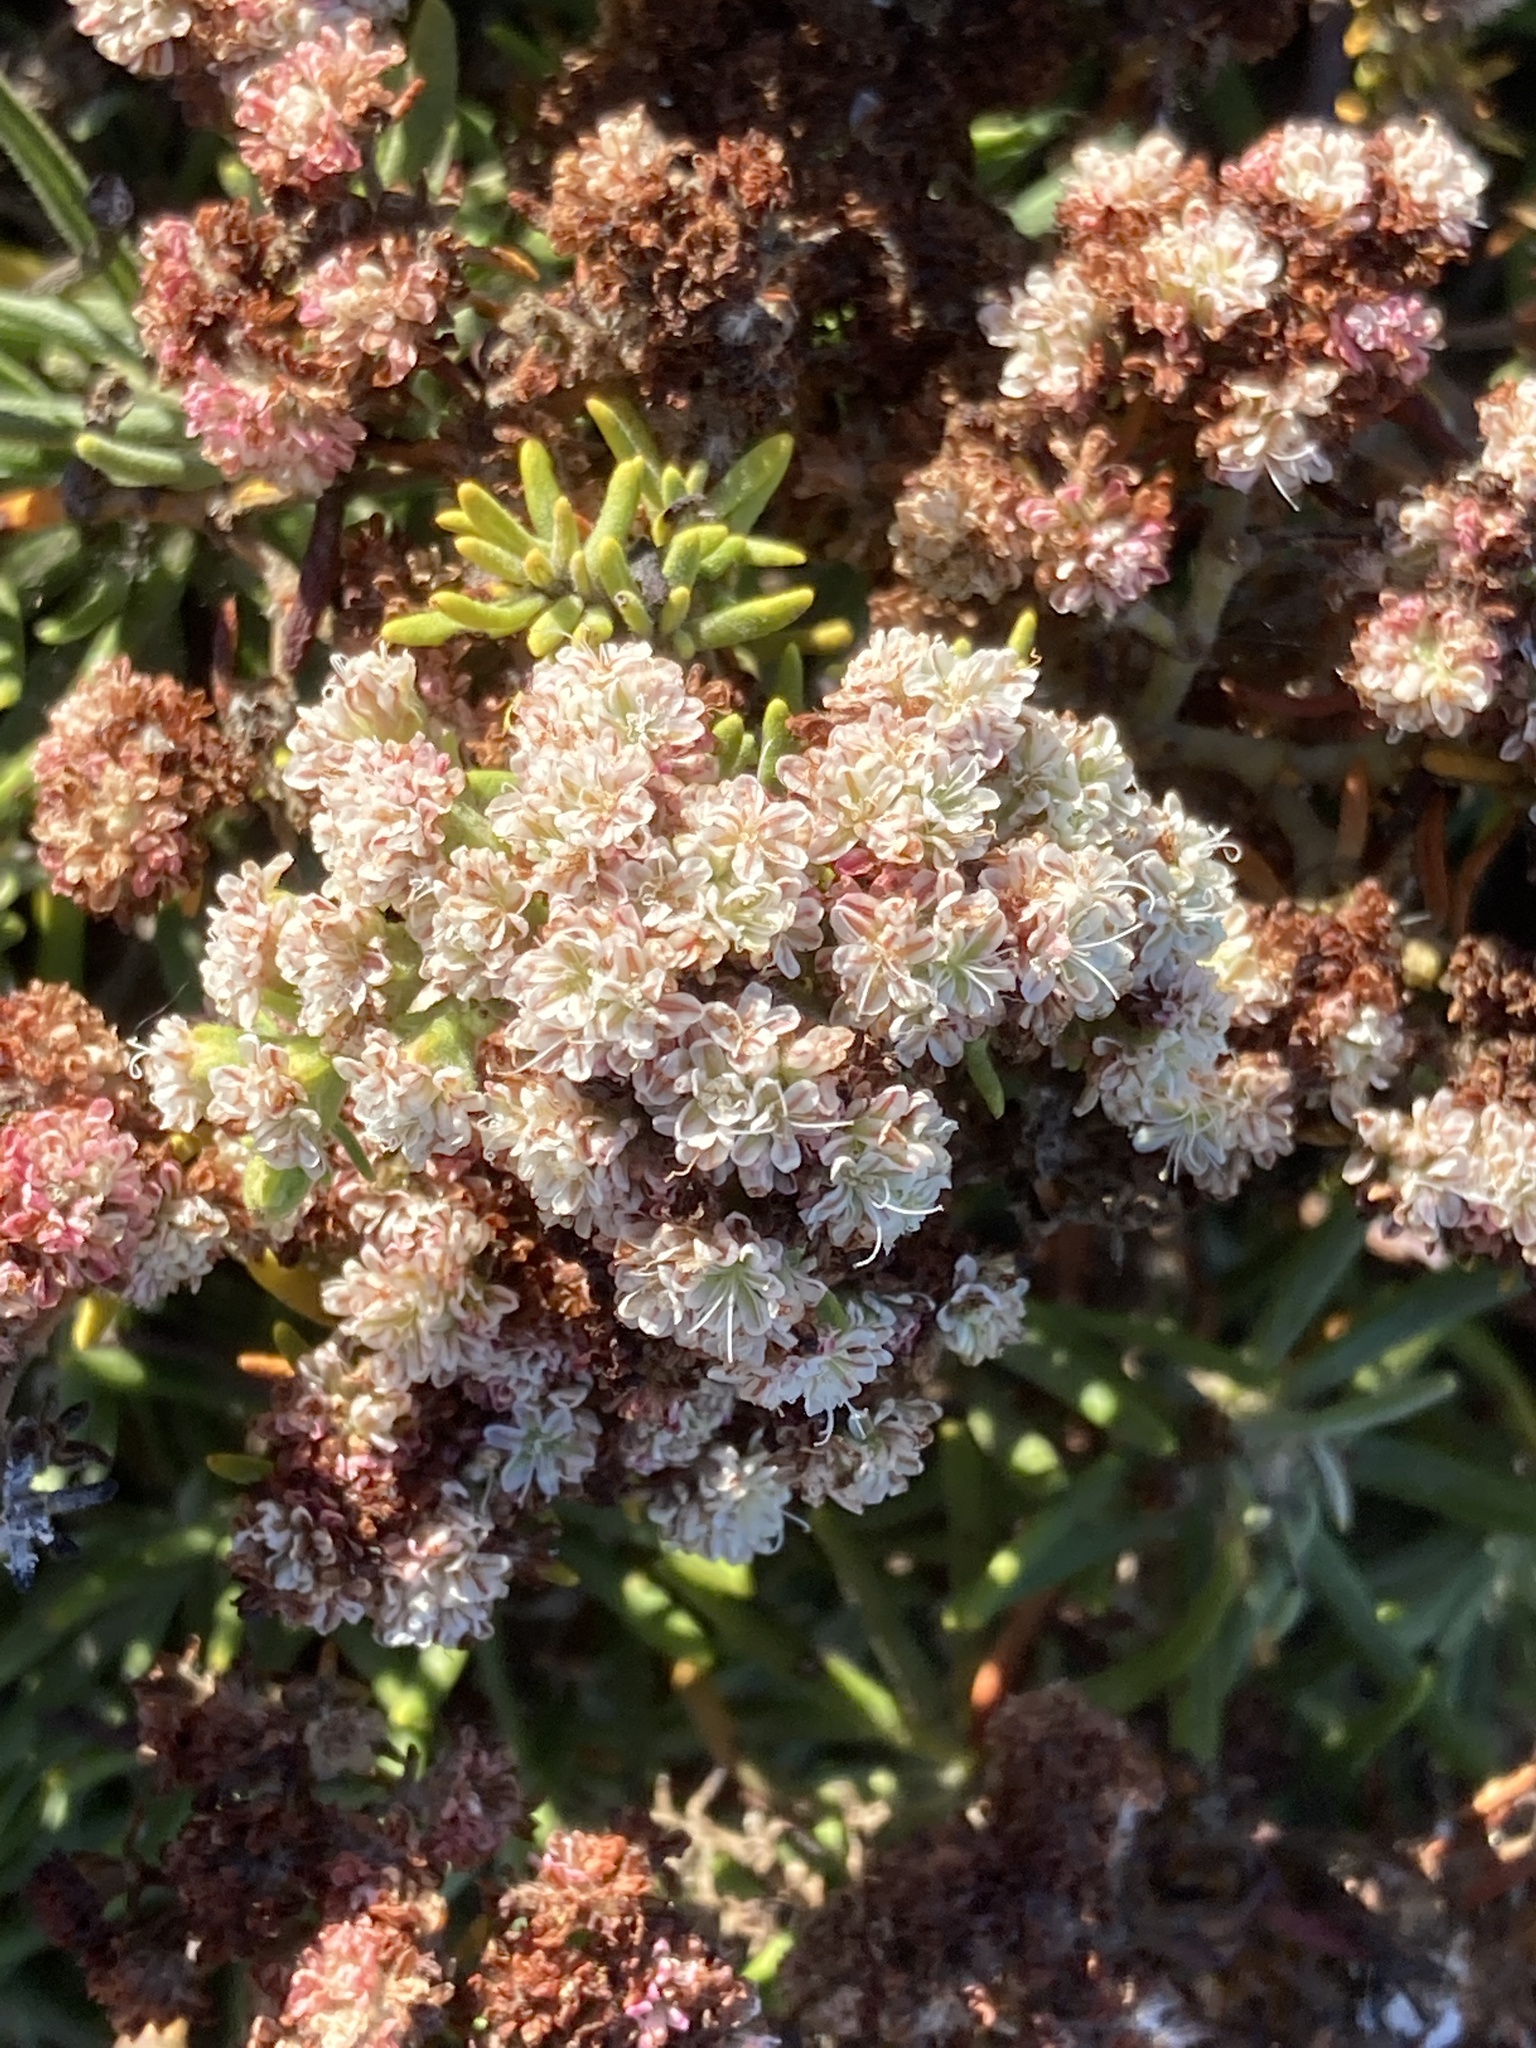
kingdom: Plantae
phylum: Tracheophyta
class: Magnoliopsida
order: Caryophyllales
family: Polygonaceae
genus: Eriogonum
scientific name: Eriogonum arborescens
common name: Island buckwheat
